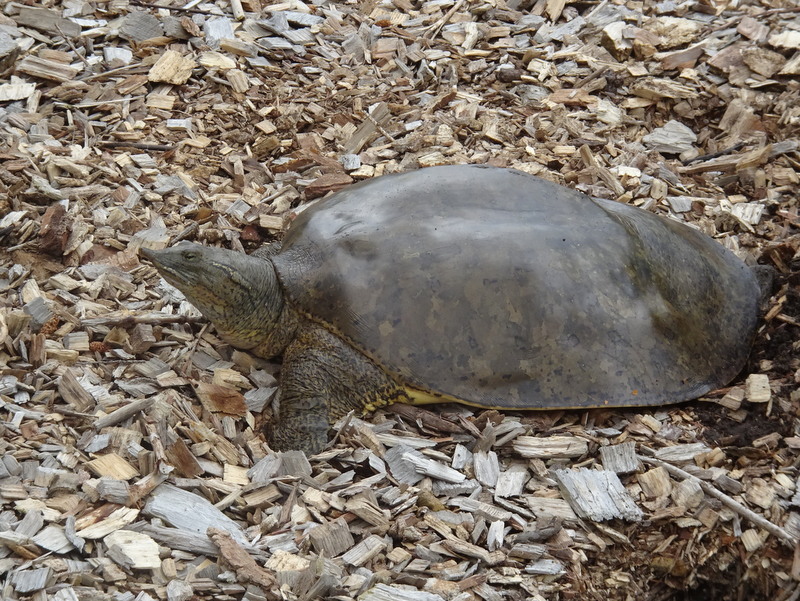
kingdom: Animalia
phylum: Chordata
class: Testudines
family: Trionychidae
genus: Apalone
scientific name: Apalone spinifera
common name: Spiny softshell turtle
